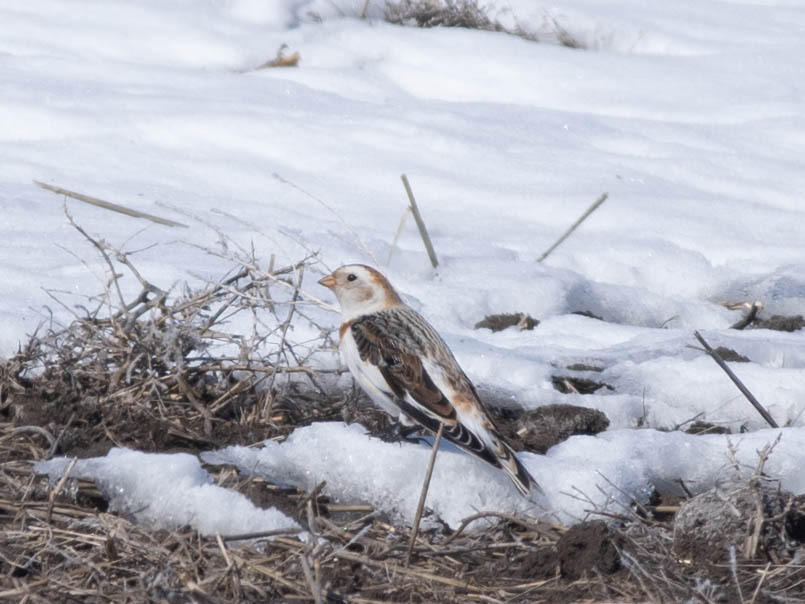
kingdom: Animalia
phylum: Chordata
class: Aves
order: Passeriformes
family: Calcariidae
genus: Plectrophenax
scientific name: Plectrophenax nivalis
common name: Snow bunting
